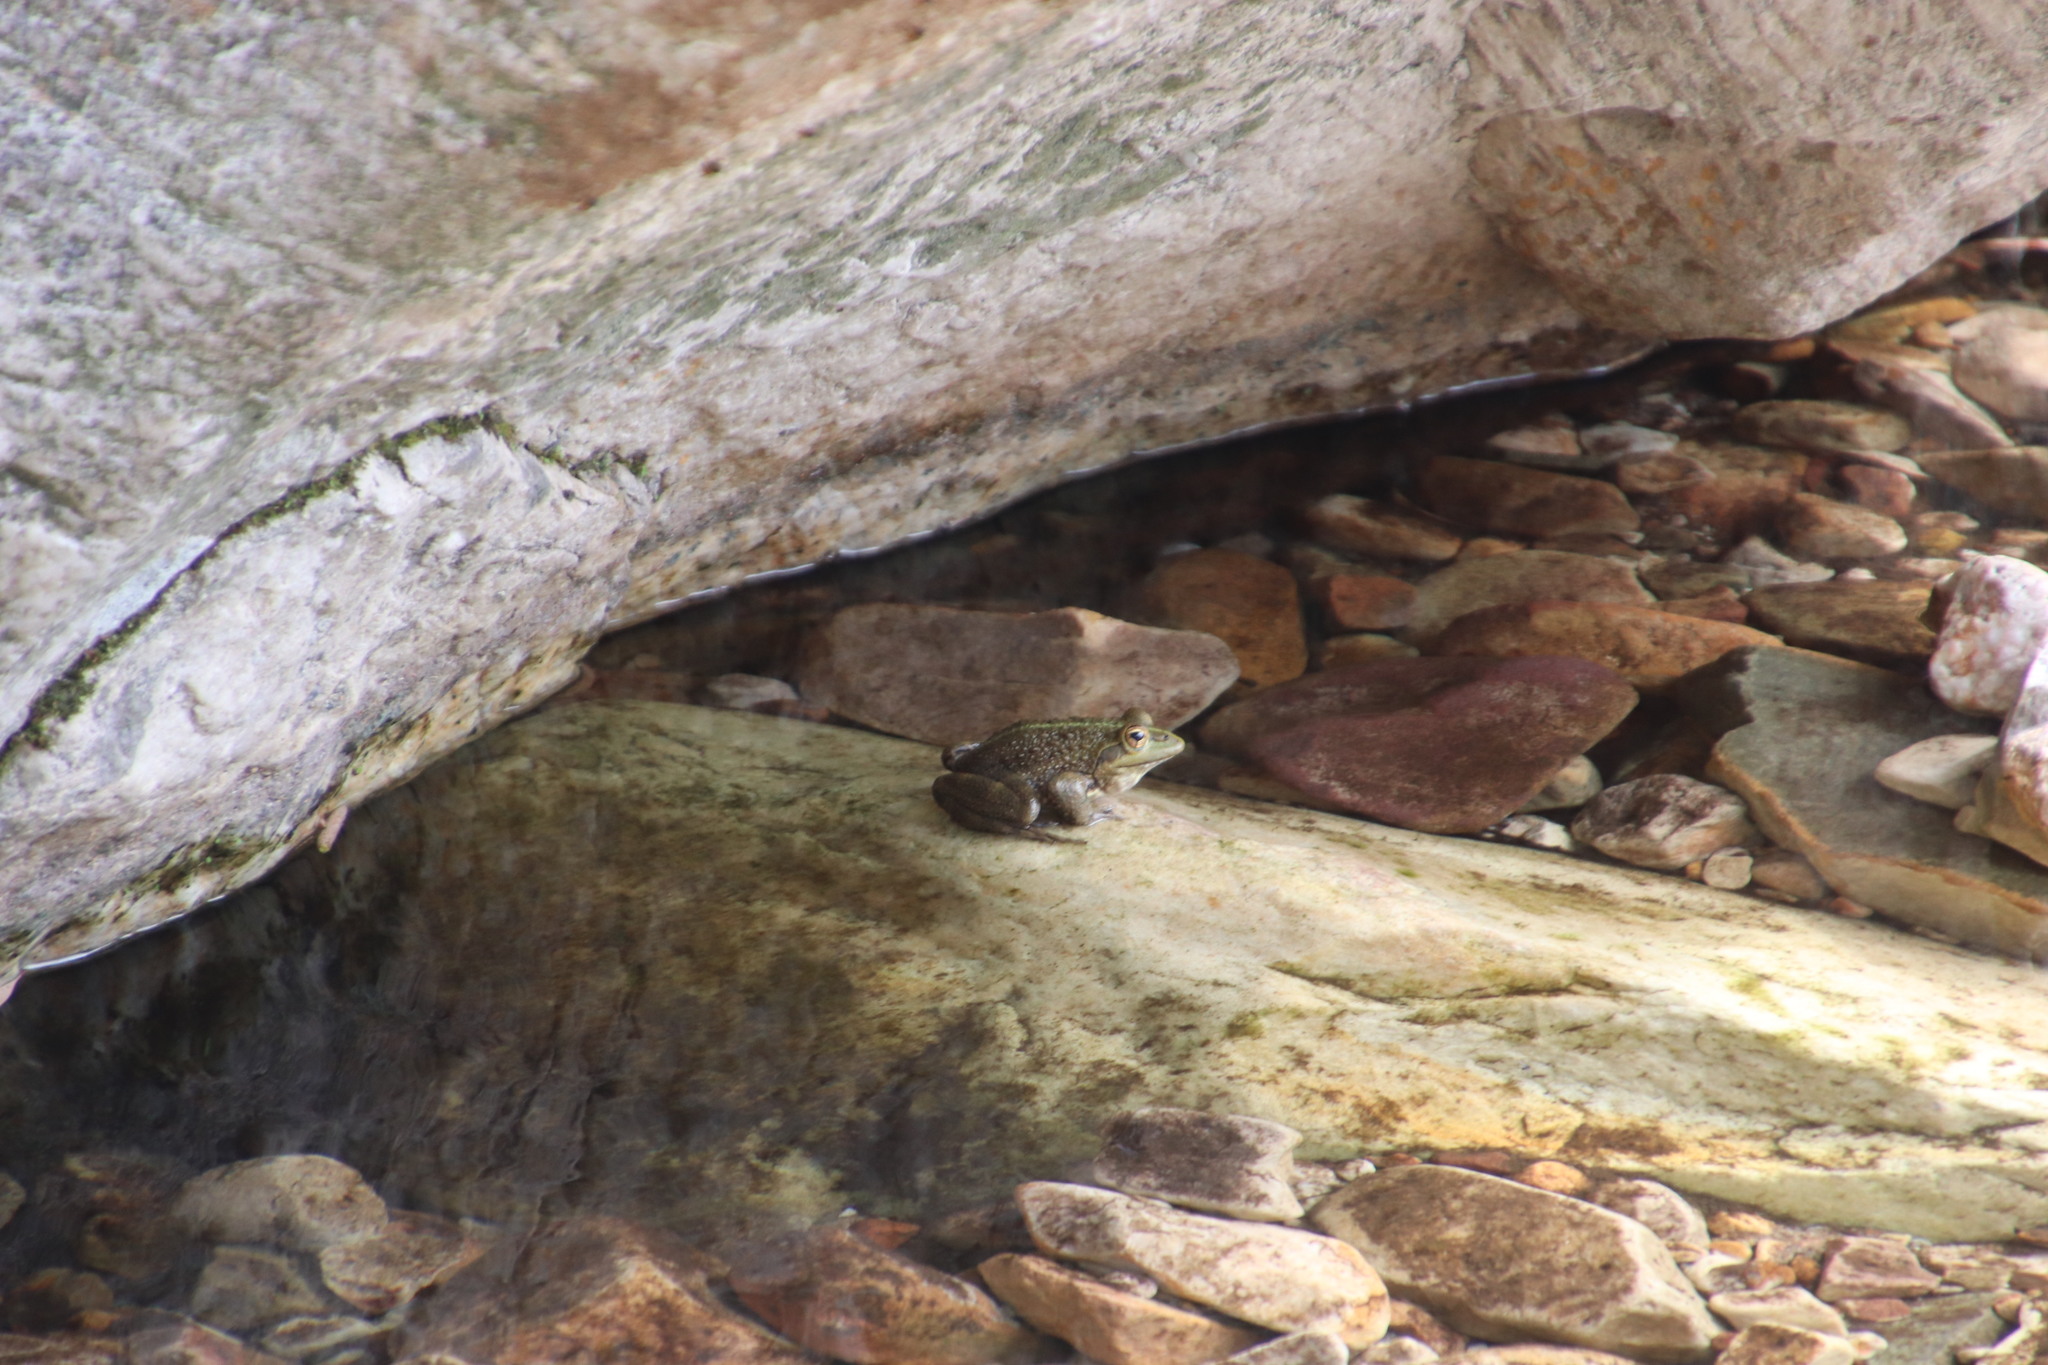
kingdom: Animalia
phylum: Chordata
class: Amphibia
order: Anura
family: Pyxicephalidae
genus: Amietia
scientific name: Amietia fuscigula
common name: Cape rana
